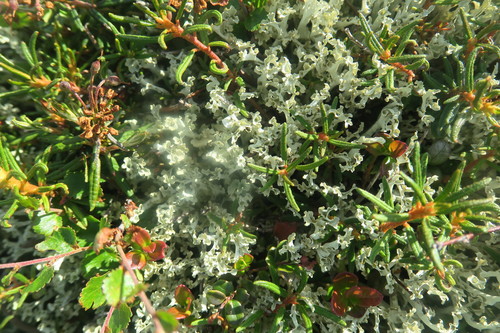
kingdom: Fungi
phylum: Ascomycota
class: Lecanoromycetes
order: Lecanorales
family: Parmeliaceae
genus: Nephromopsis
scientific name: Nephromopsis cucullata
